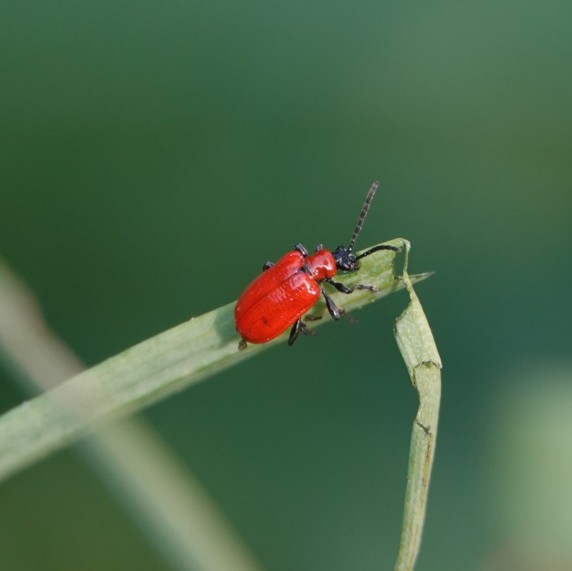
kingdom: Animalia
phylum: Arthropoda
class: Insecta
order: Coleoptera
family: Chrysomelidae
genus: Lilioceris
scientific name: Lilioceris lilii
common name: Lily beetle
